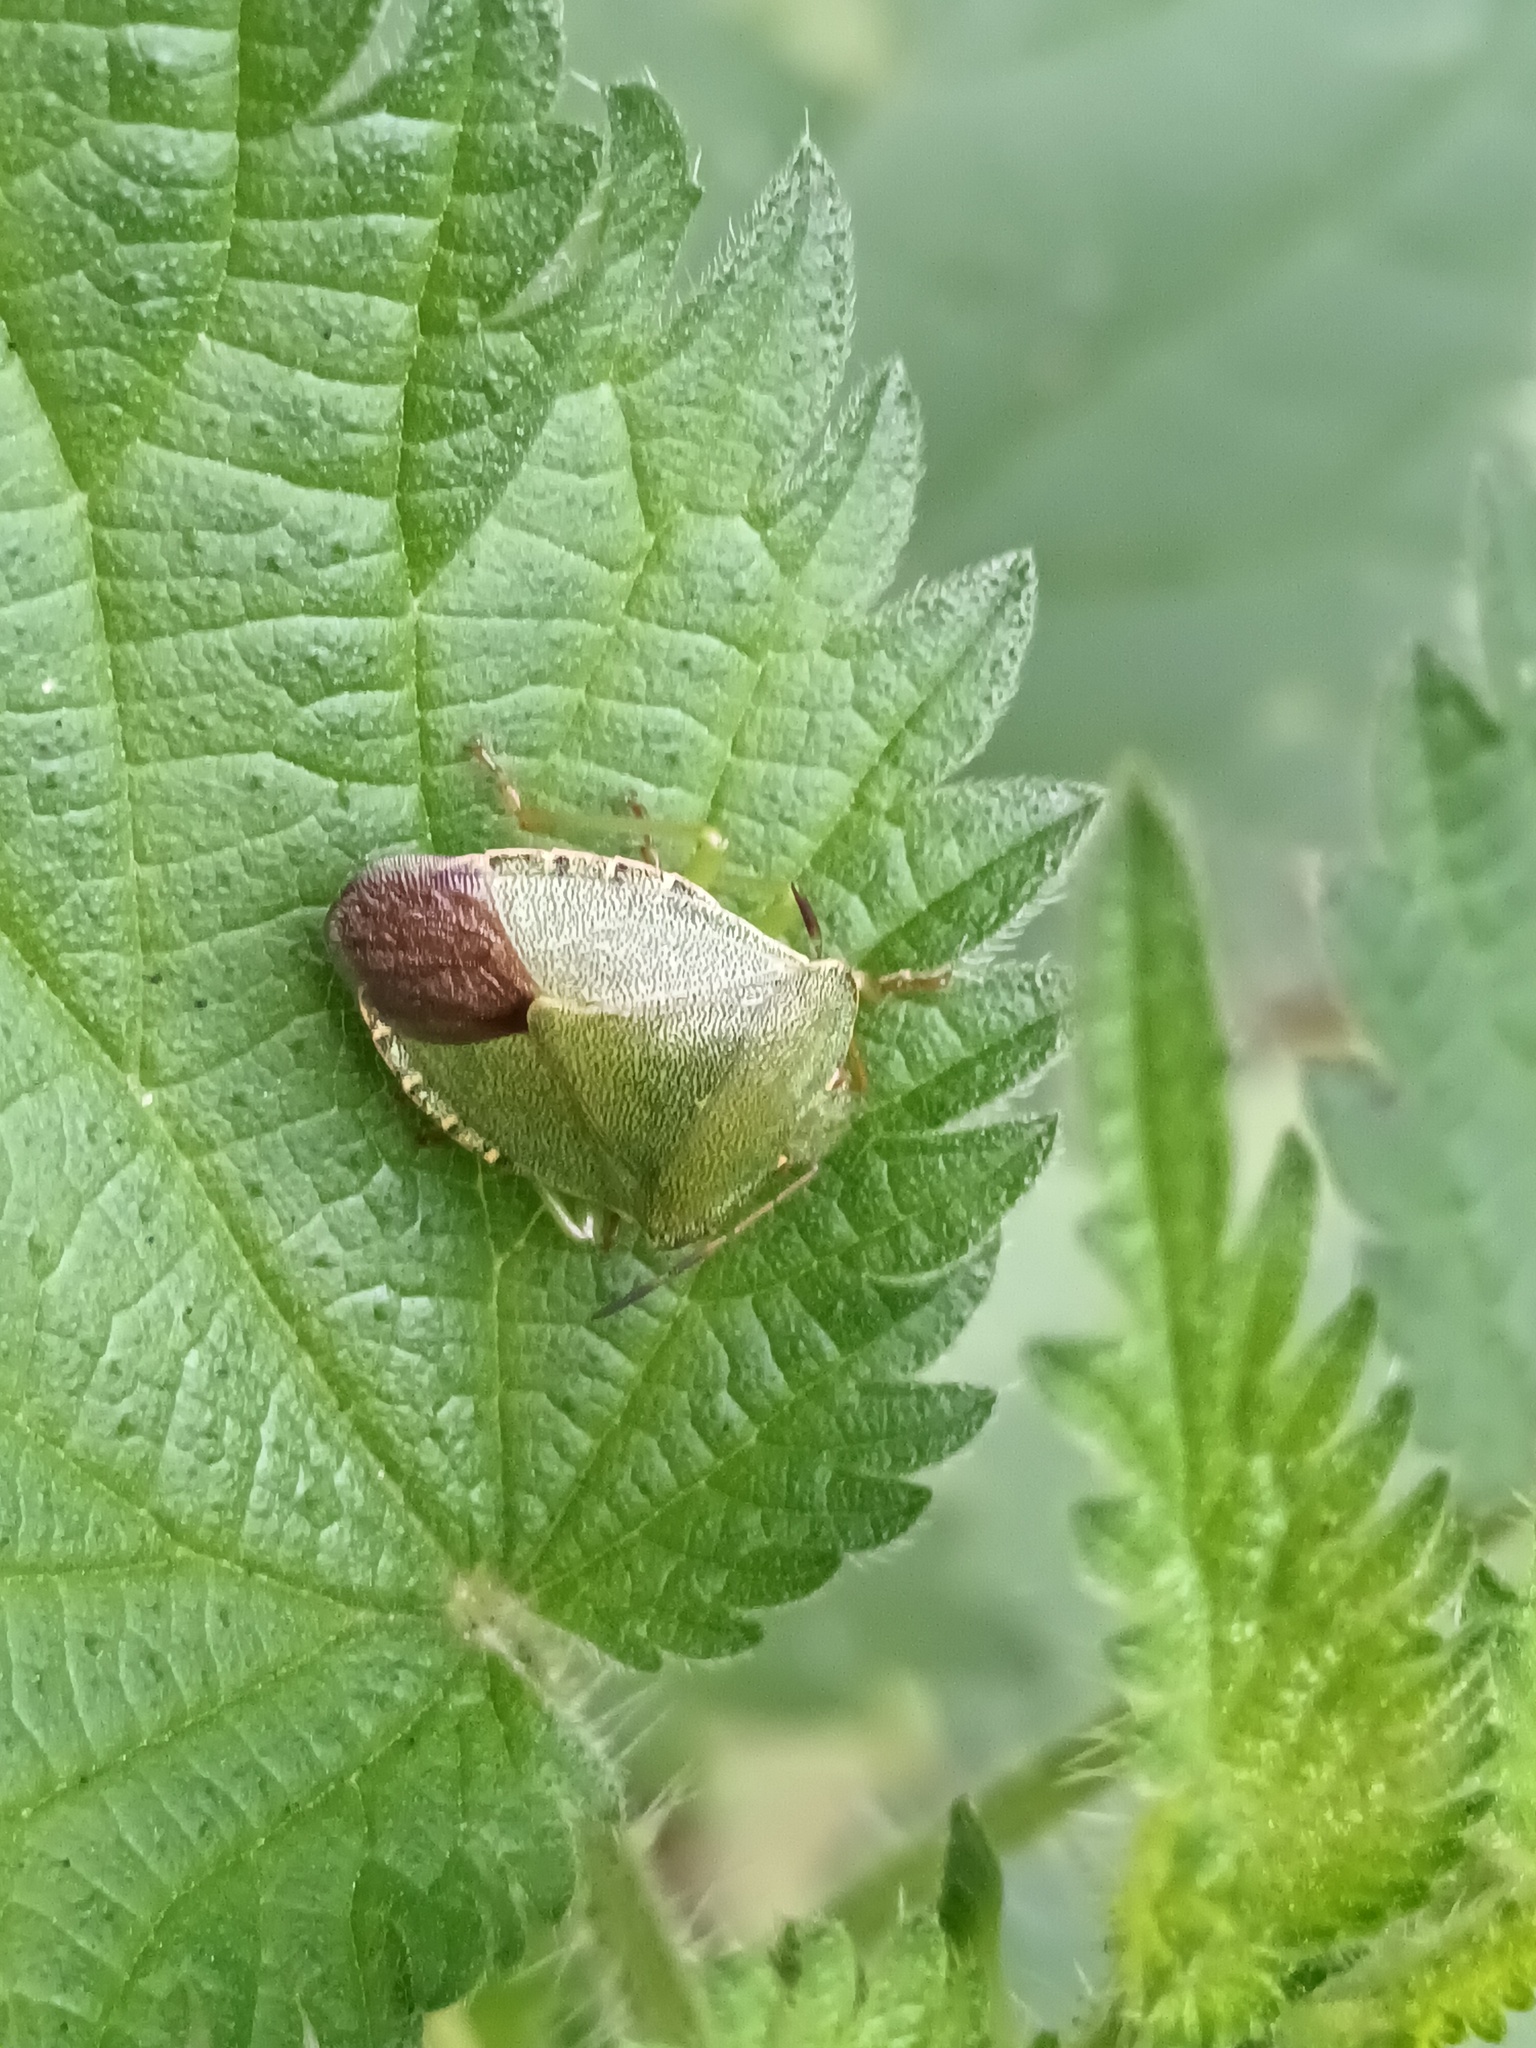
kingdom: Animalia
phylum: Arthropoda
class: Insecta
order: Hemiptera
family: Pentatomidae
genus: Palomena
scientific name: Palomena prasina
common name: Green shieldbug
